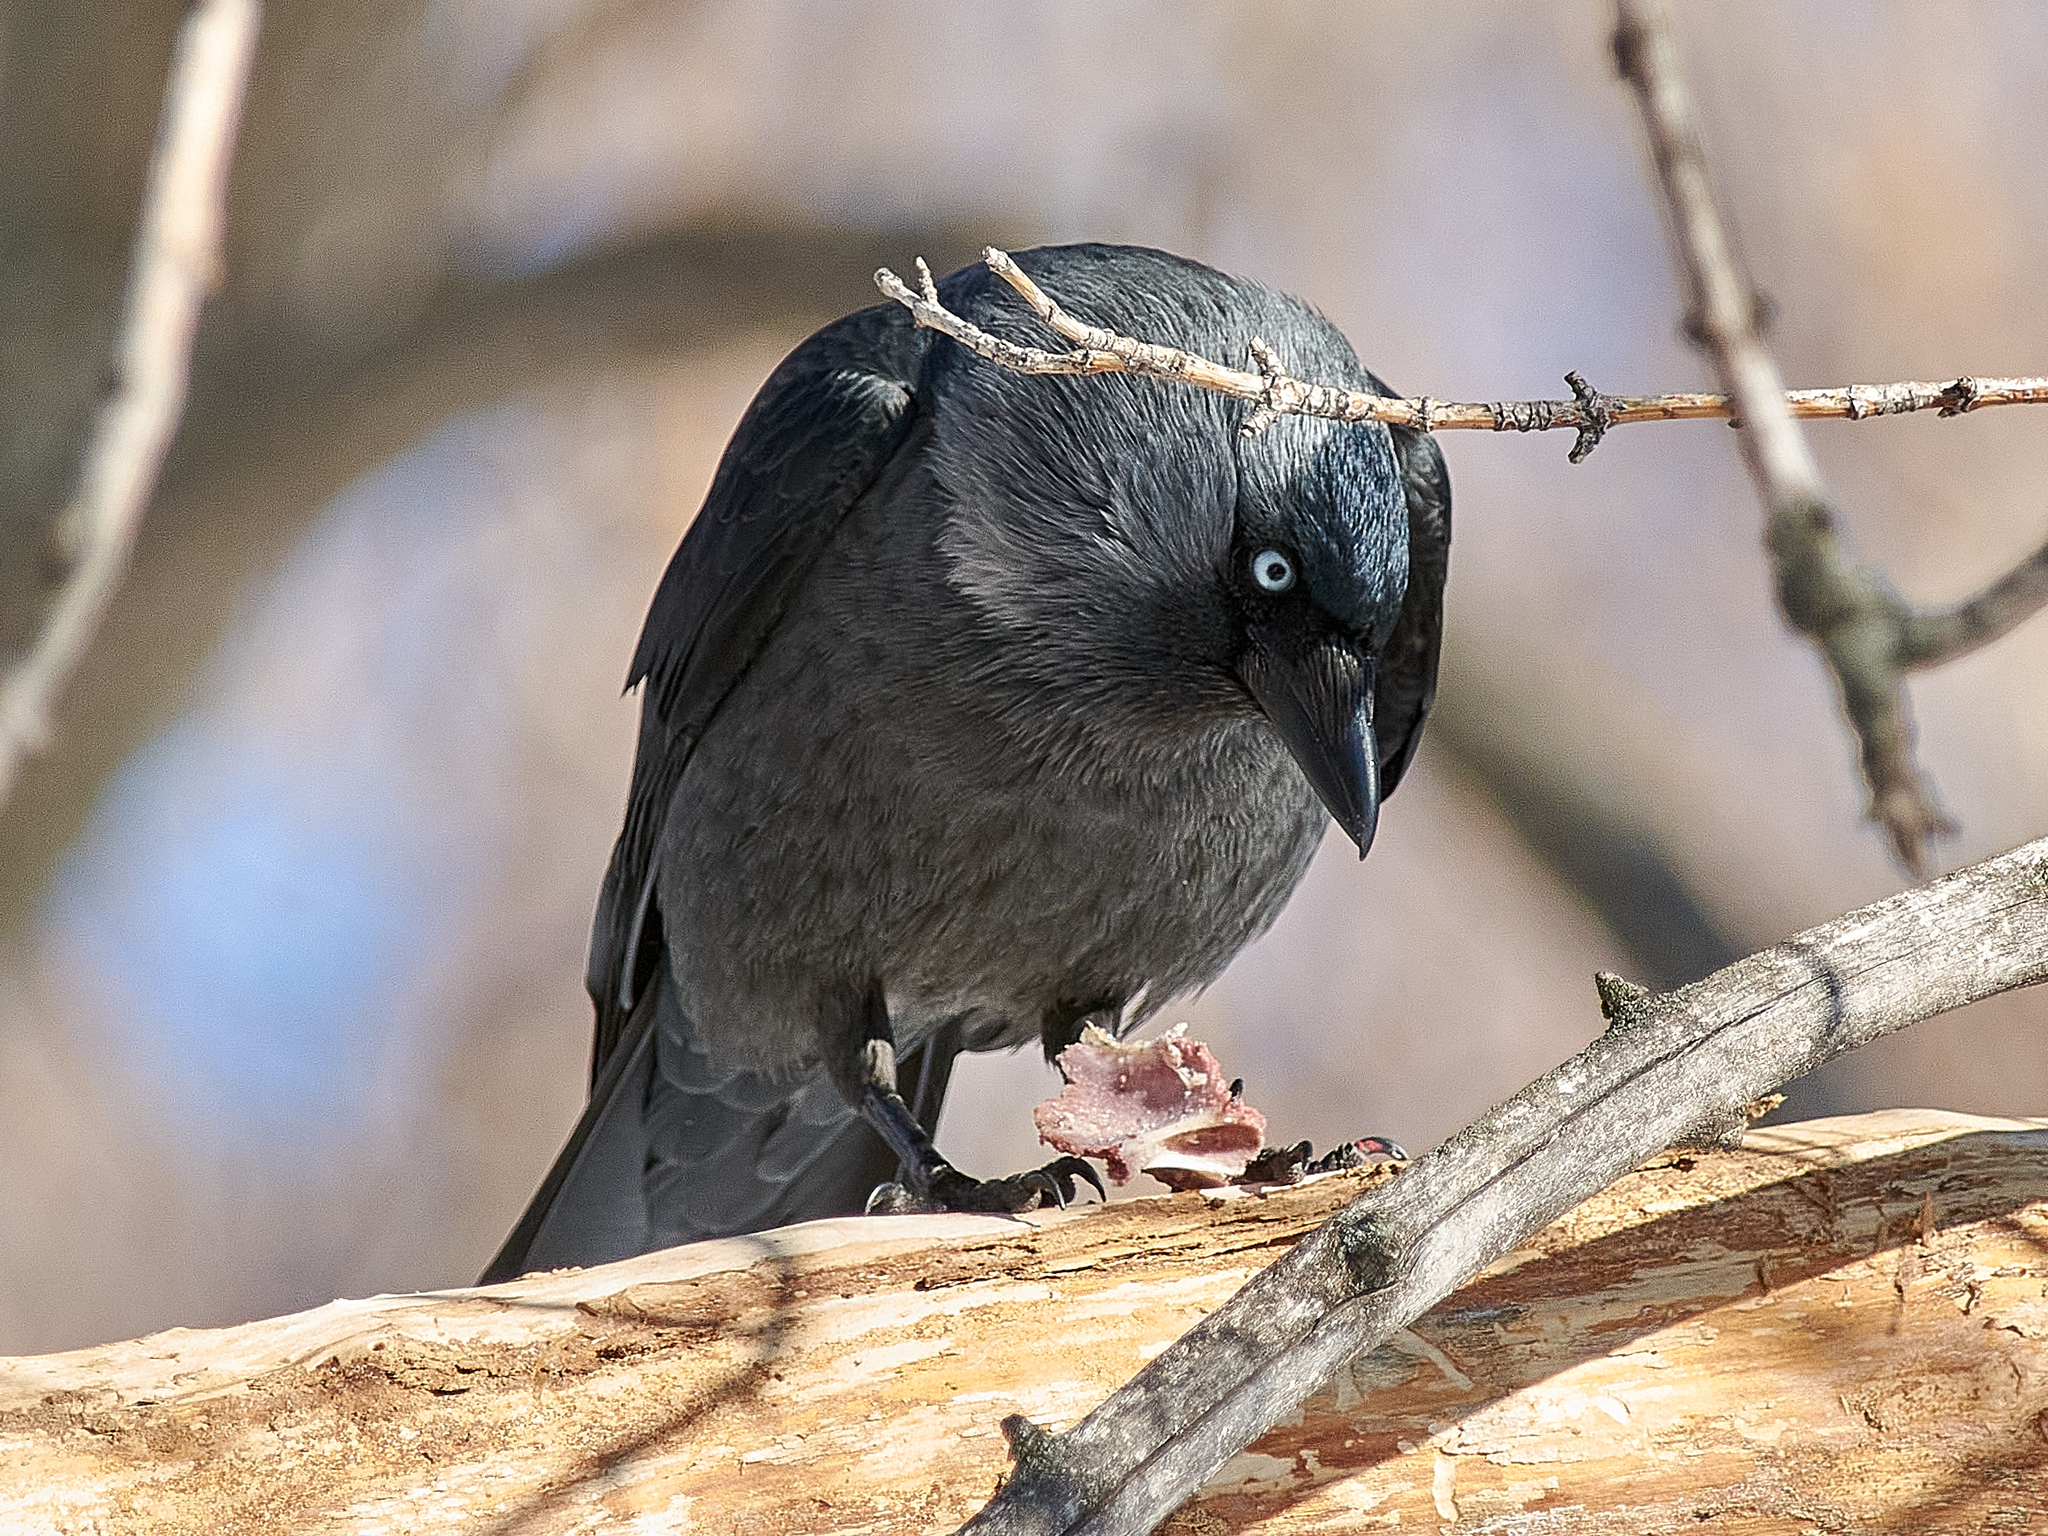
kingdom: Animalia
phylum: Chordata
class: Aves
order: Passeriformes
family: Corvidae
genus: Coloeus
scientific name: Coloeus monedula
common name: Western jackdaw
